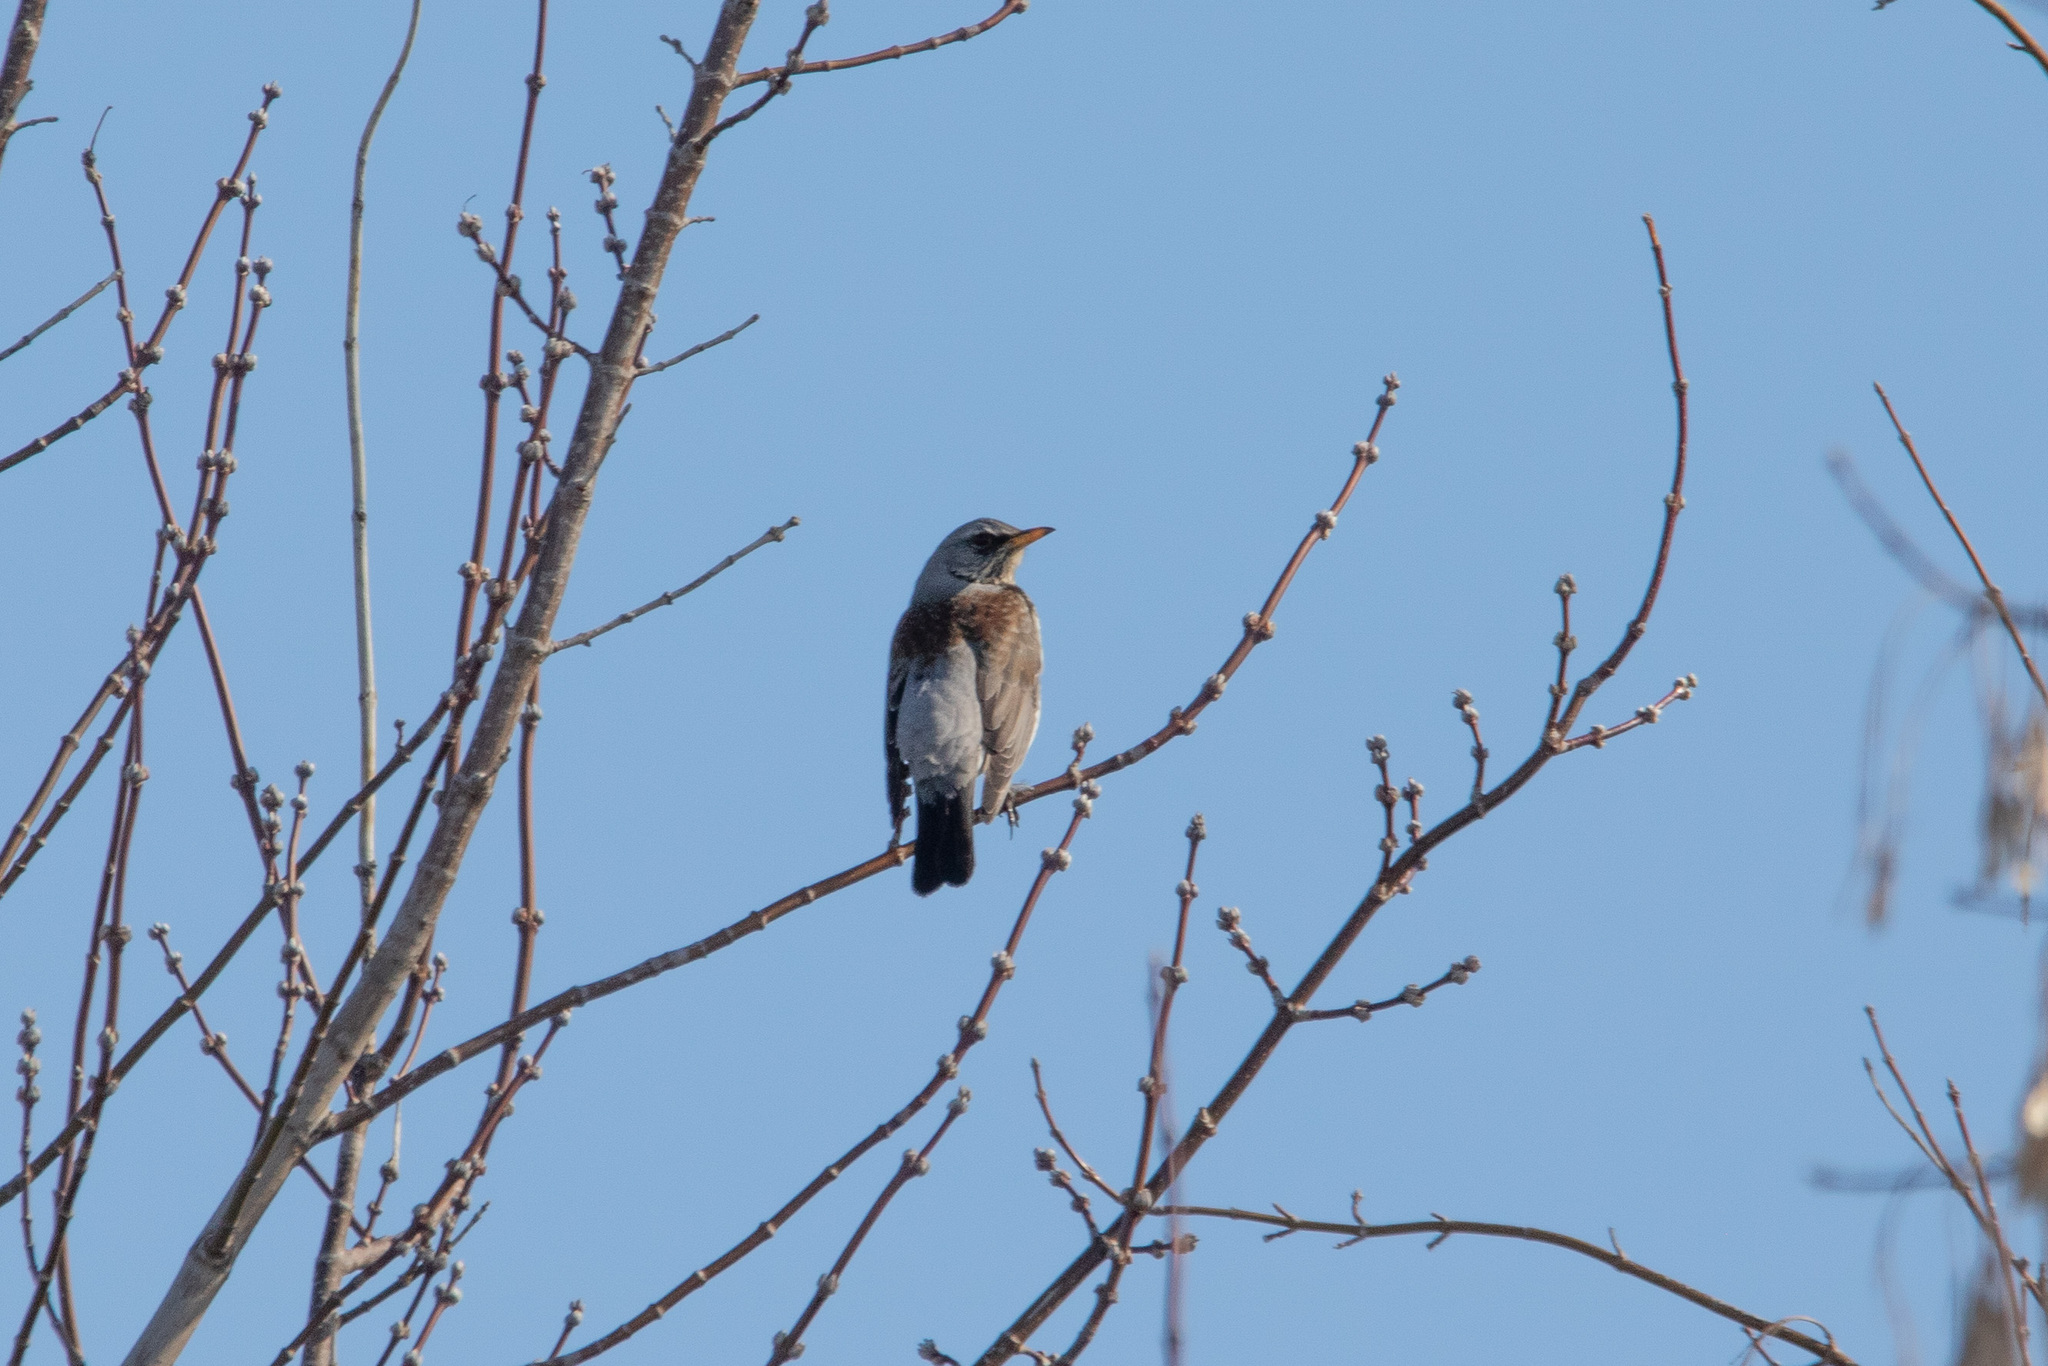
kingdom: Animalia
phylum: Chordata
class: Aves
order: Passeriformes
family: Turdidae
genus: Turdus
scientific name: Turdus pilaris
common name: Fieldfare
